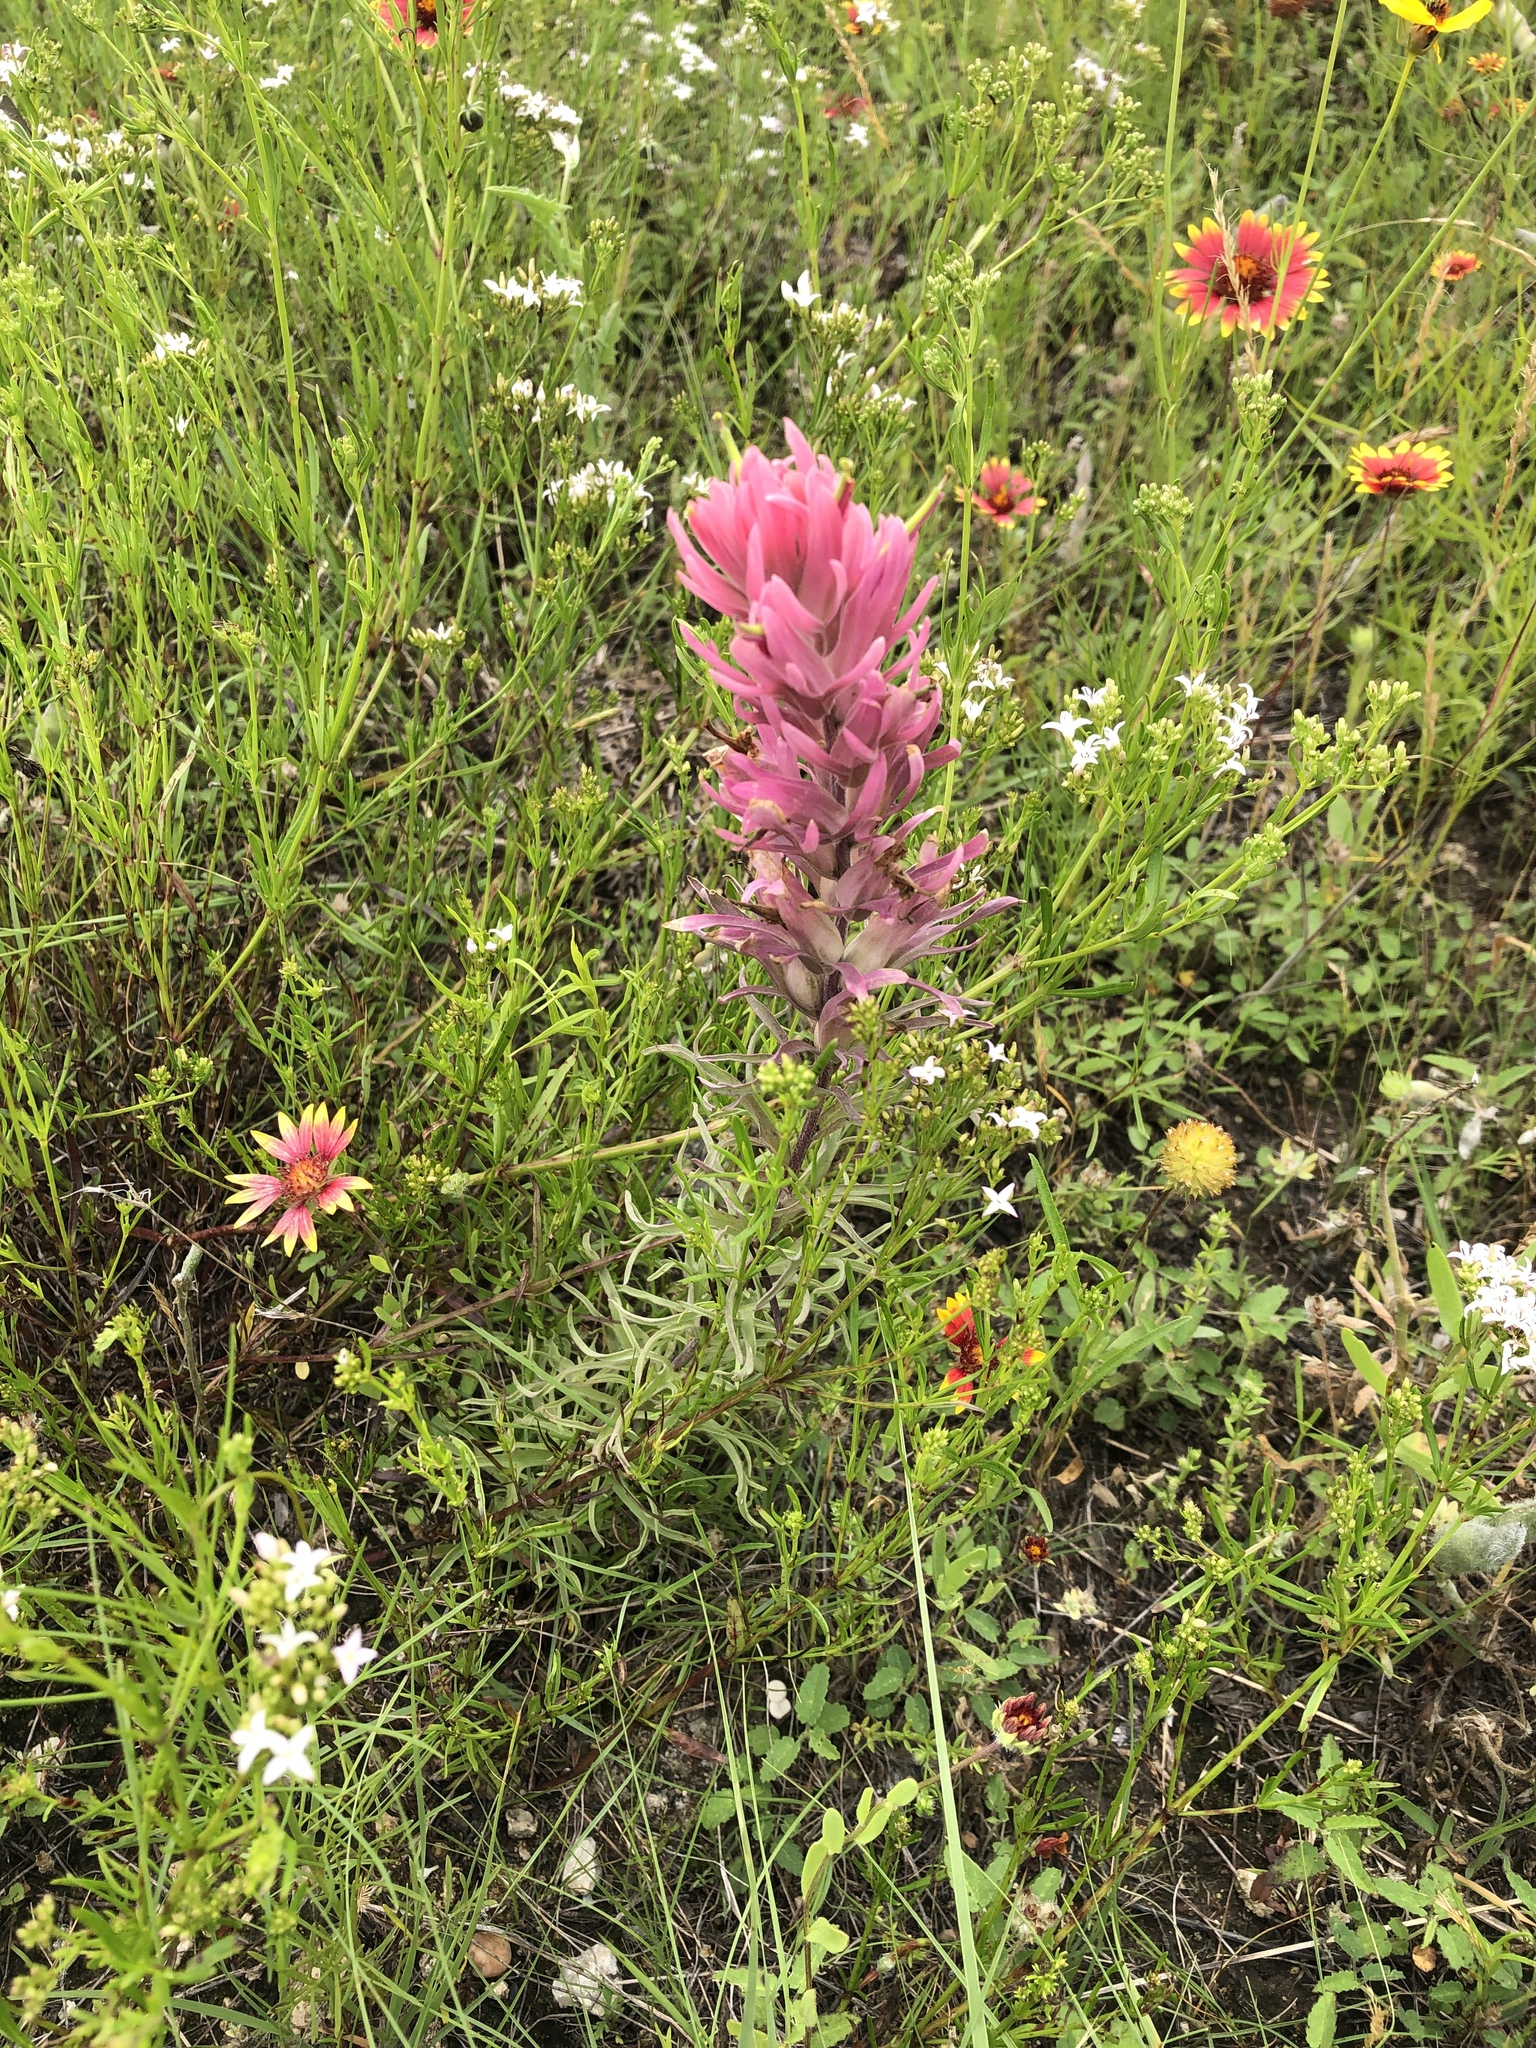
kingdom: Plantae
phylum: Tracheophyta
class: Magnoliopsida
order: Lamiales
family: Orobanchaceae
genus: Castilleja
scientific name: Castilleja purpurea
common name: Plains paintbrush
